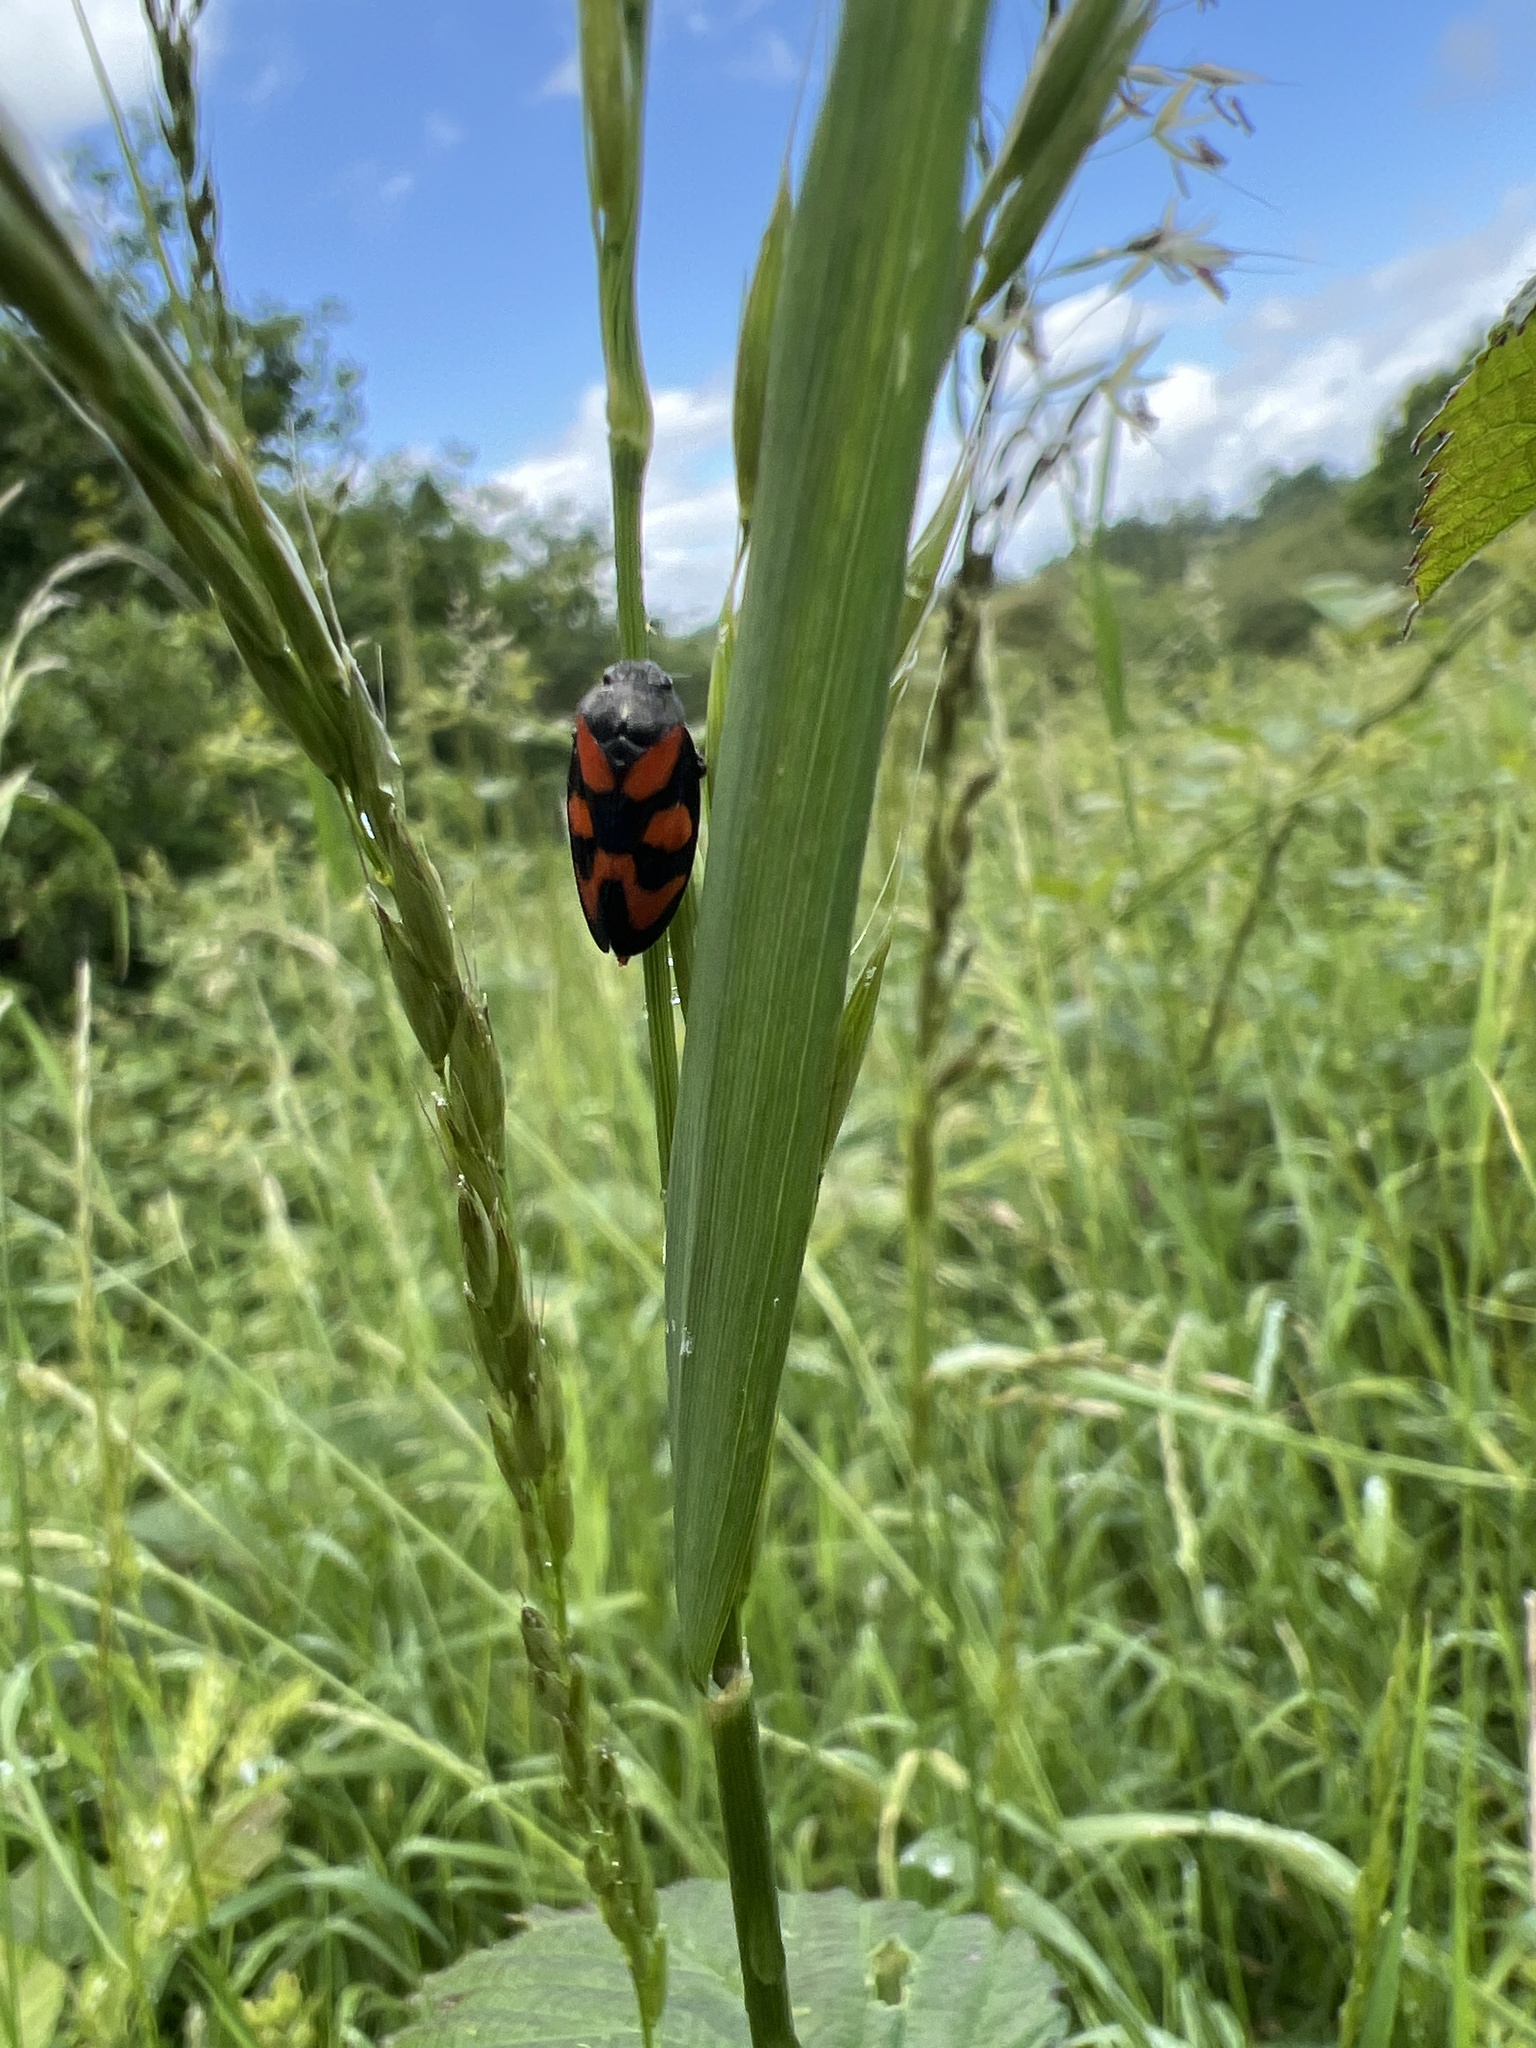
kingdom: Animalia
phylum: Arthropoda
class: Insecta
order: Hemiptera
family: Cercopidae
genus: Cercopis
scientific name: Cercopis vulnerata
